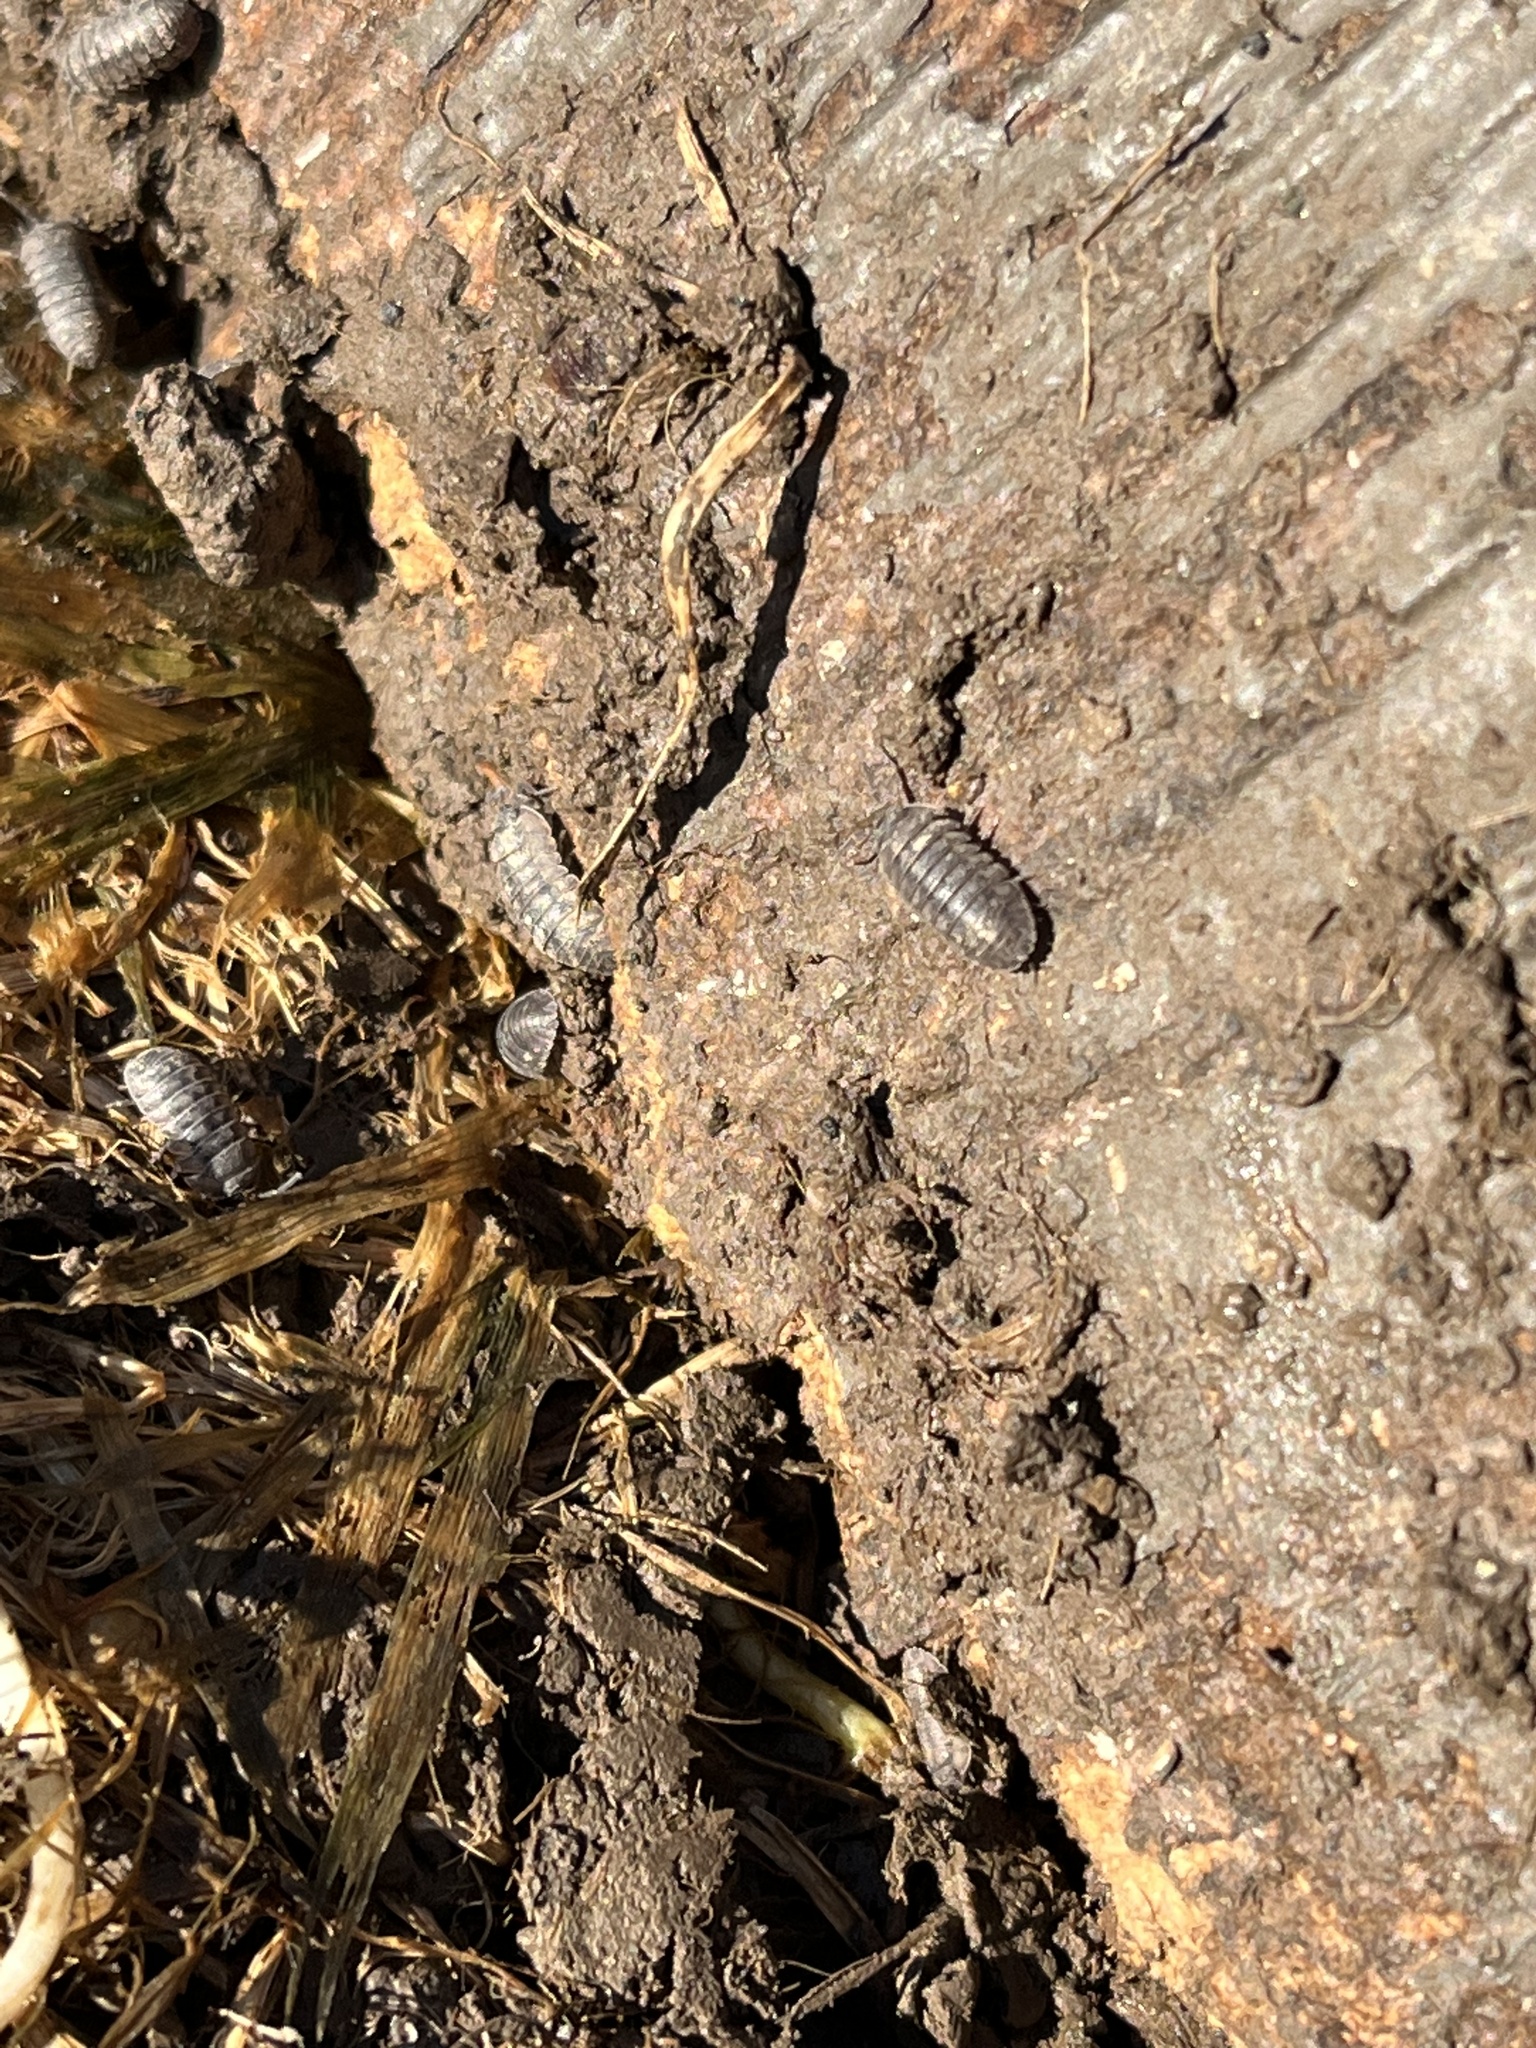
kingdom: Animalia
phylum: Arthropoda
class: Malacostraca
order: Isopoda
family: Armadillidiidae
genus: Armadillidium
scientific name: Armadillidium vulgare
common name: Common pill woodlouse
